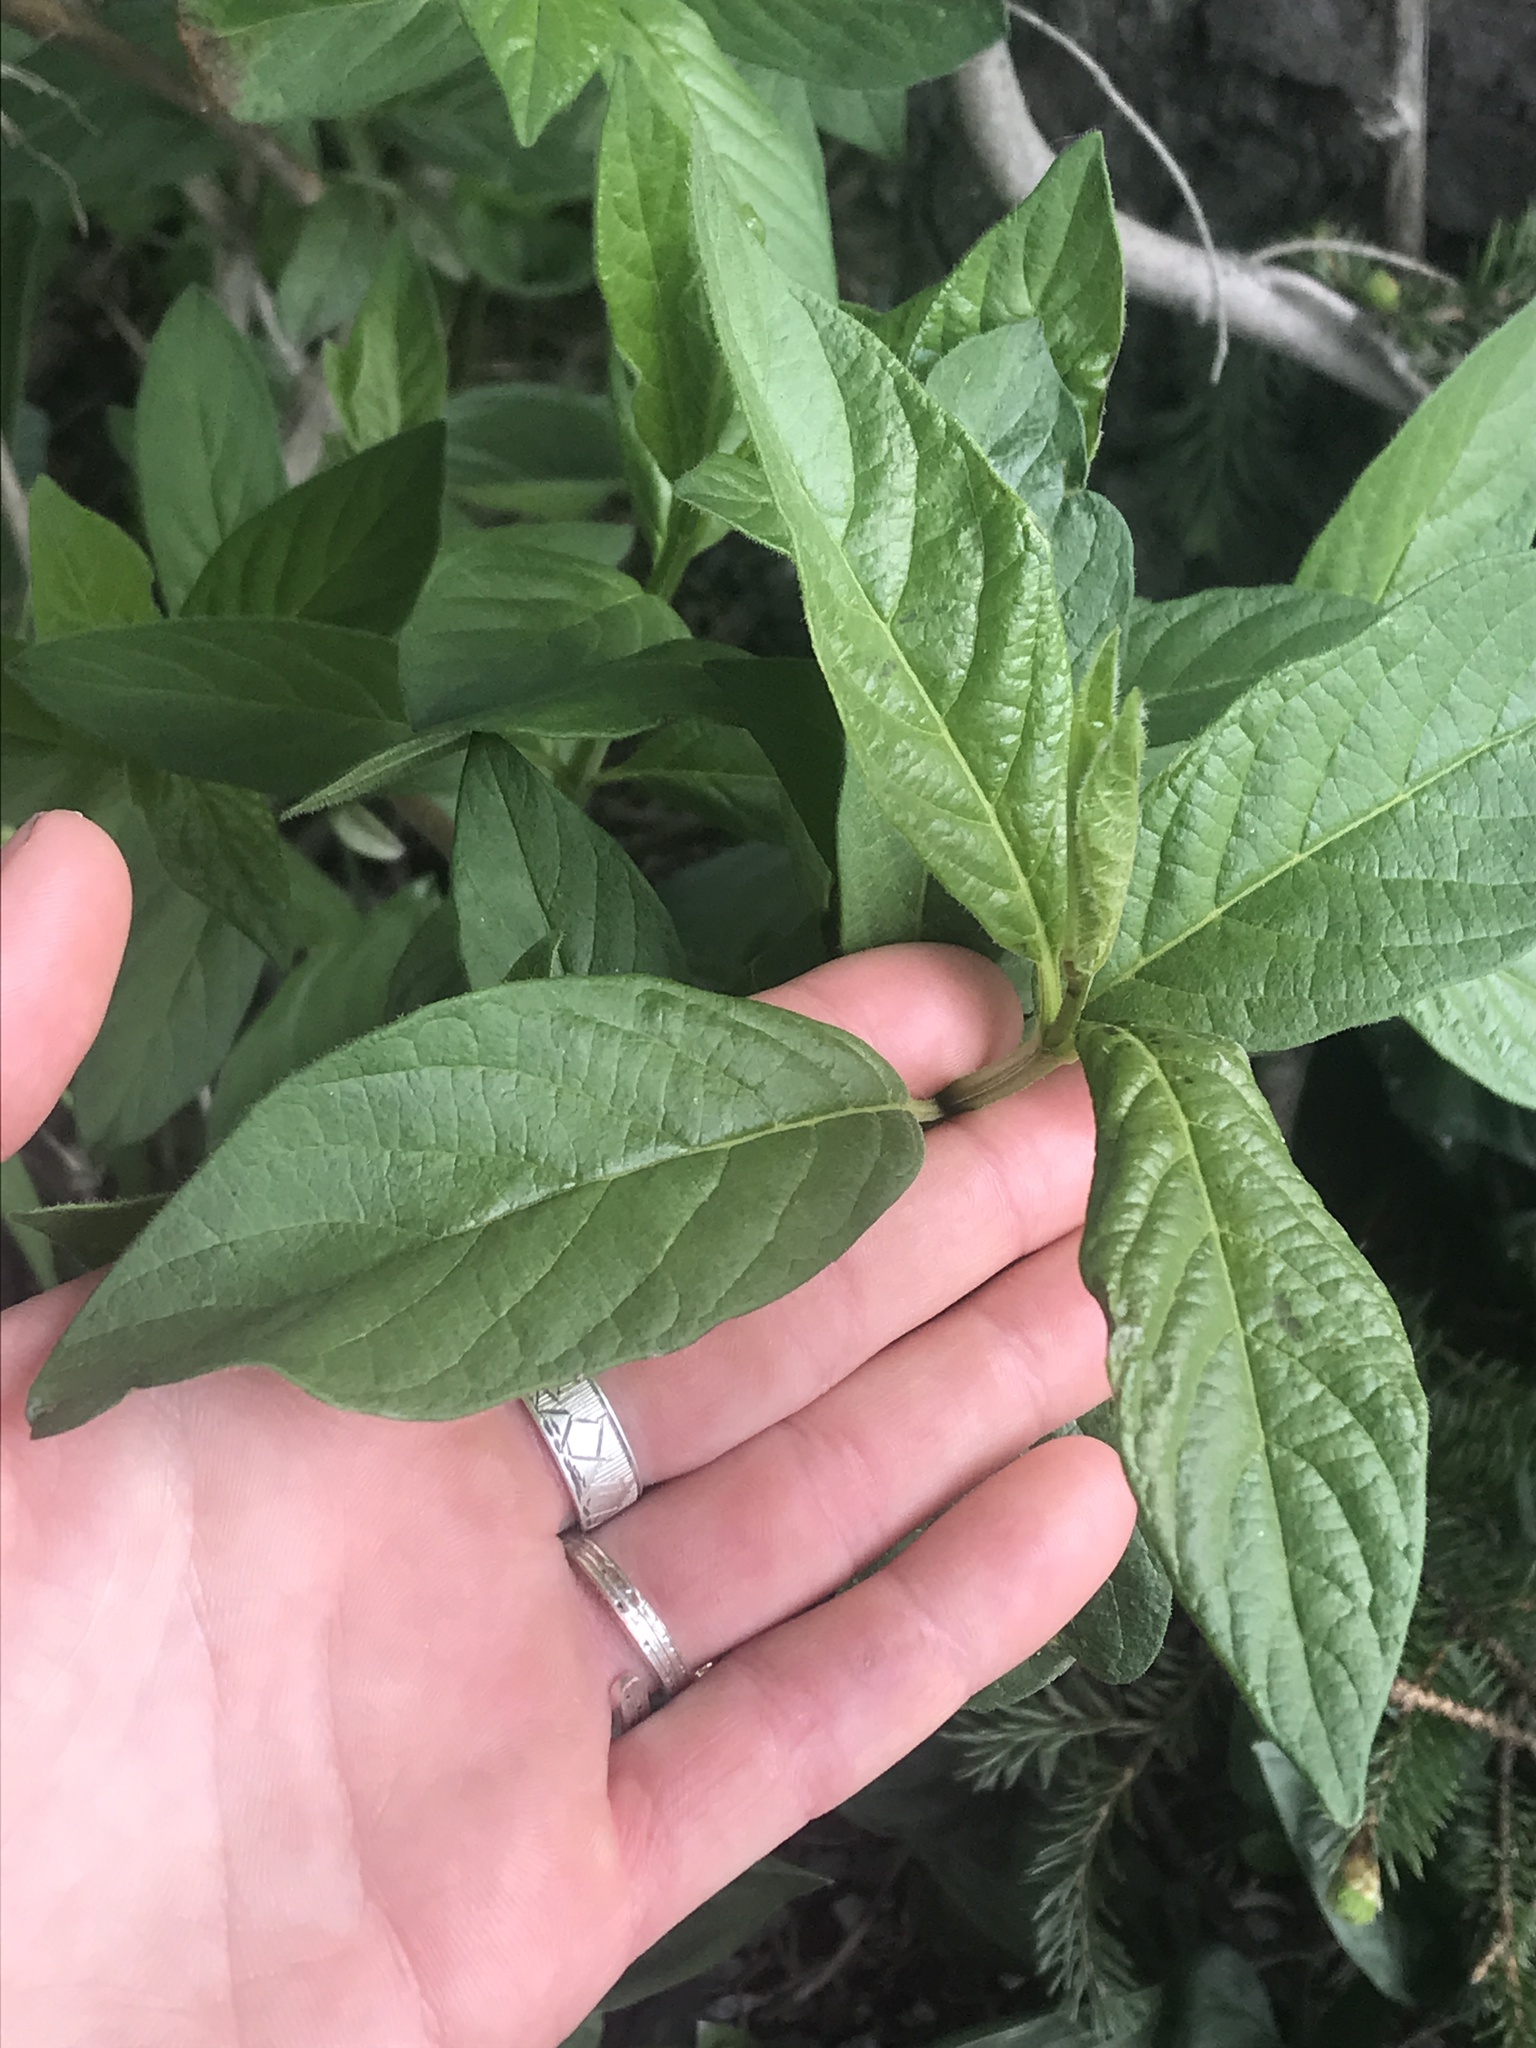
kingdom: Plantae
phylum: Tracheophyta
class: Magnoliopsida
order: Dipsacales
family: Caprifoliaceae
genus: Lonicera
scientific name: Lonicera involucrata
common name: Californian honeysuckle
